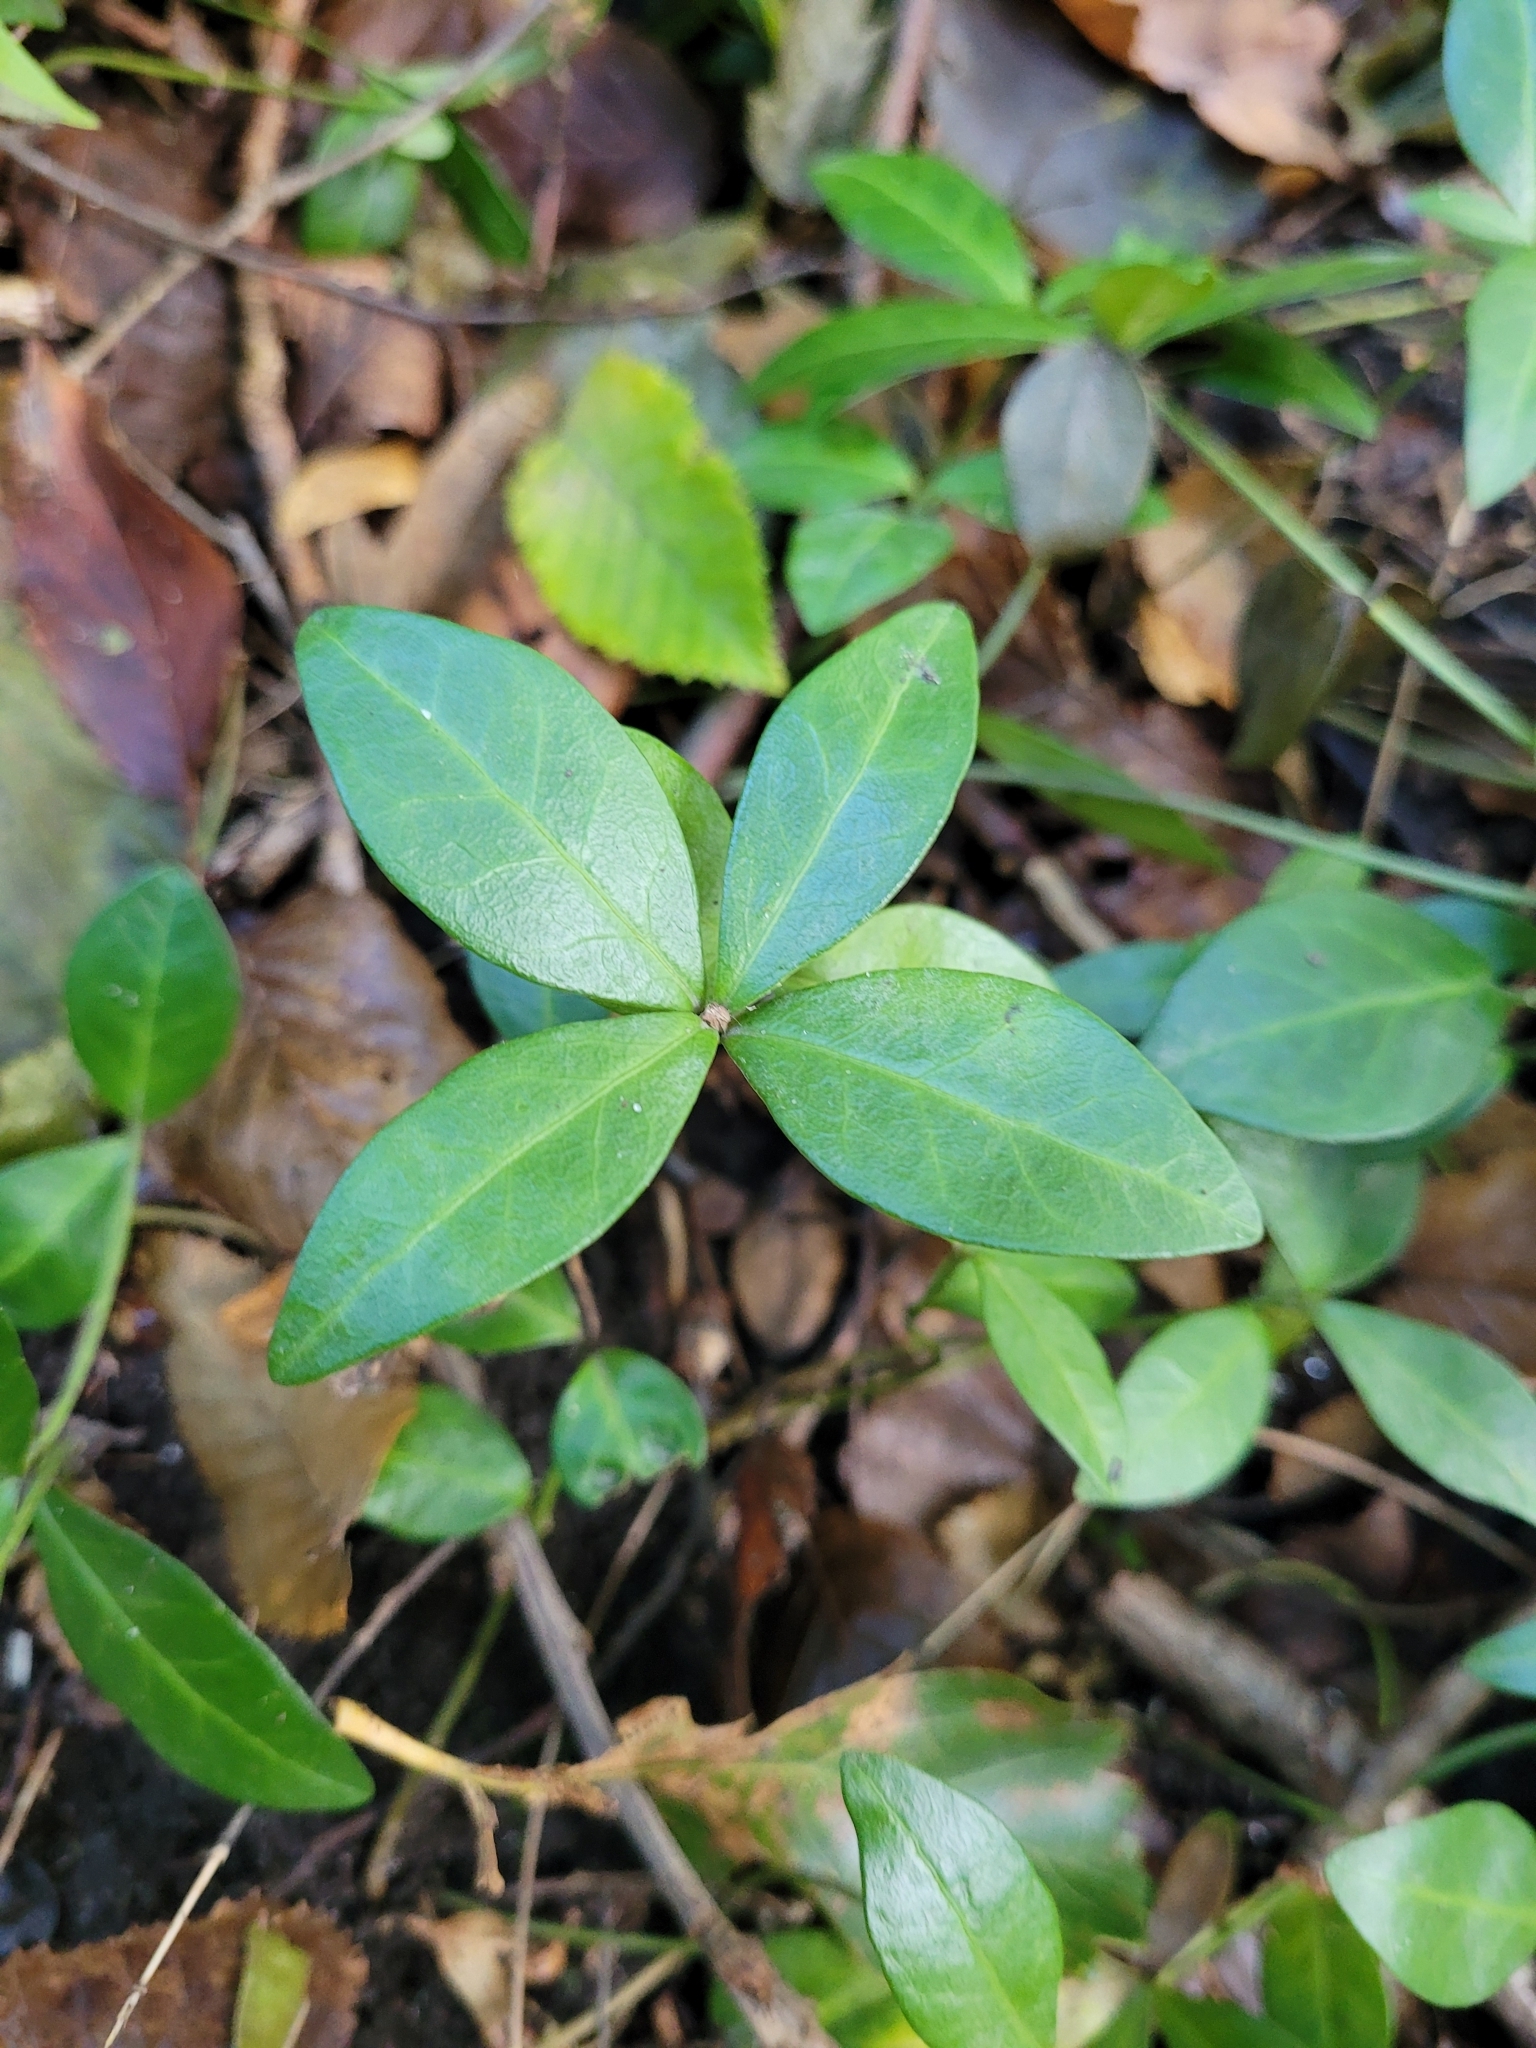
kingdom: Plantae
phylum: Tracheophyta
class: Magnoliopsida
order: Gentianales
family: Apocynaceae
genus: Vinca
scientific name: Vinca minor
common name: Lesser periwinkle
